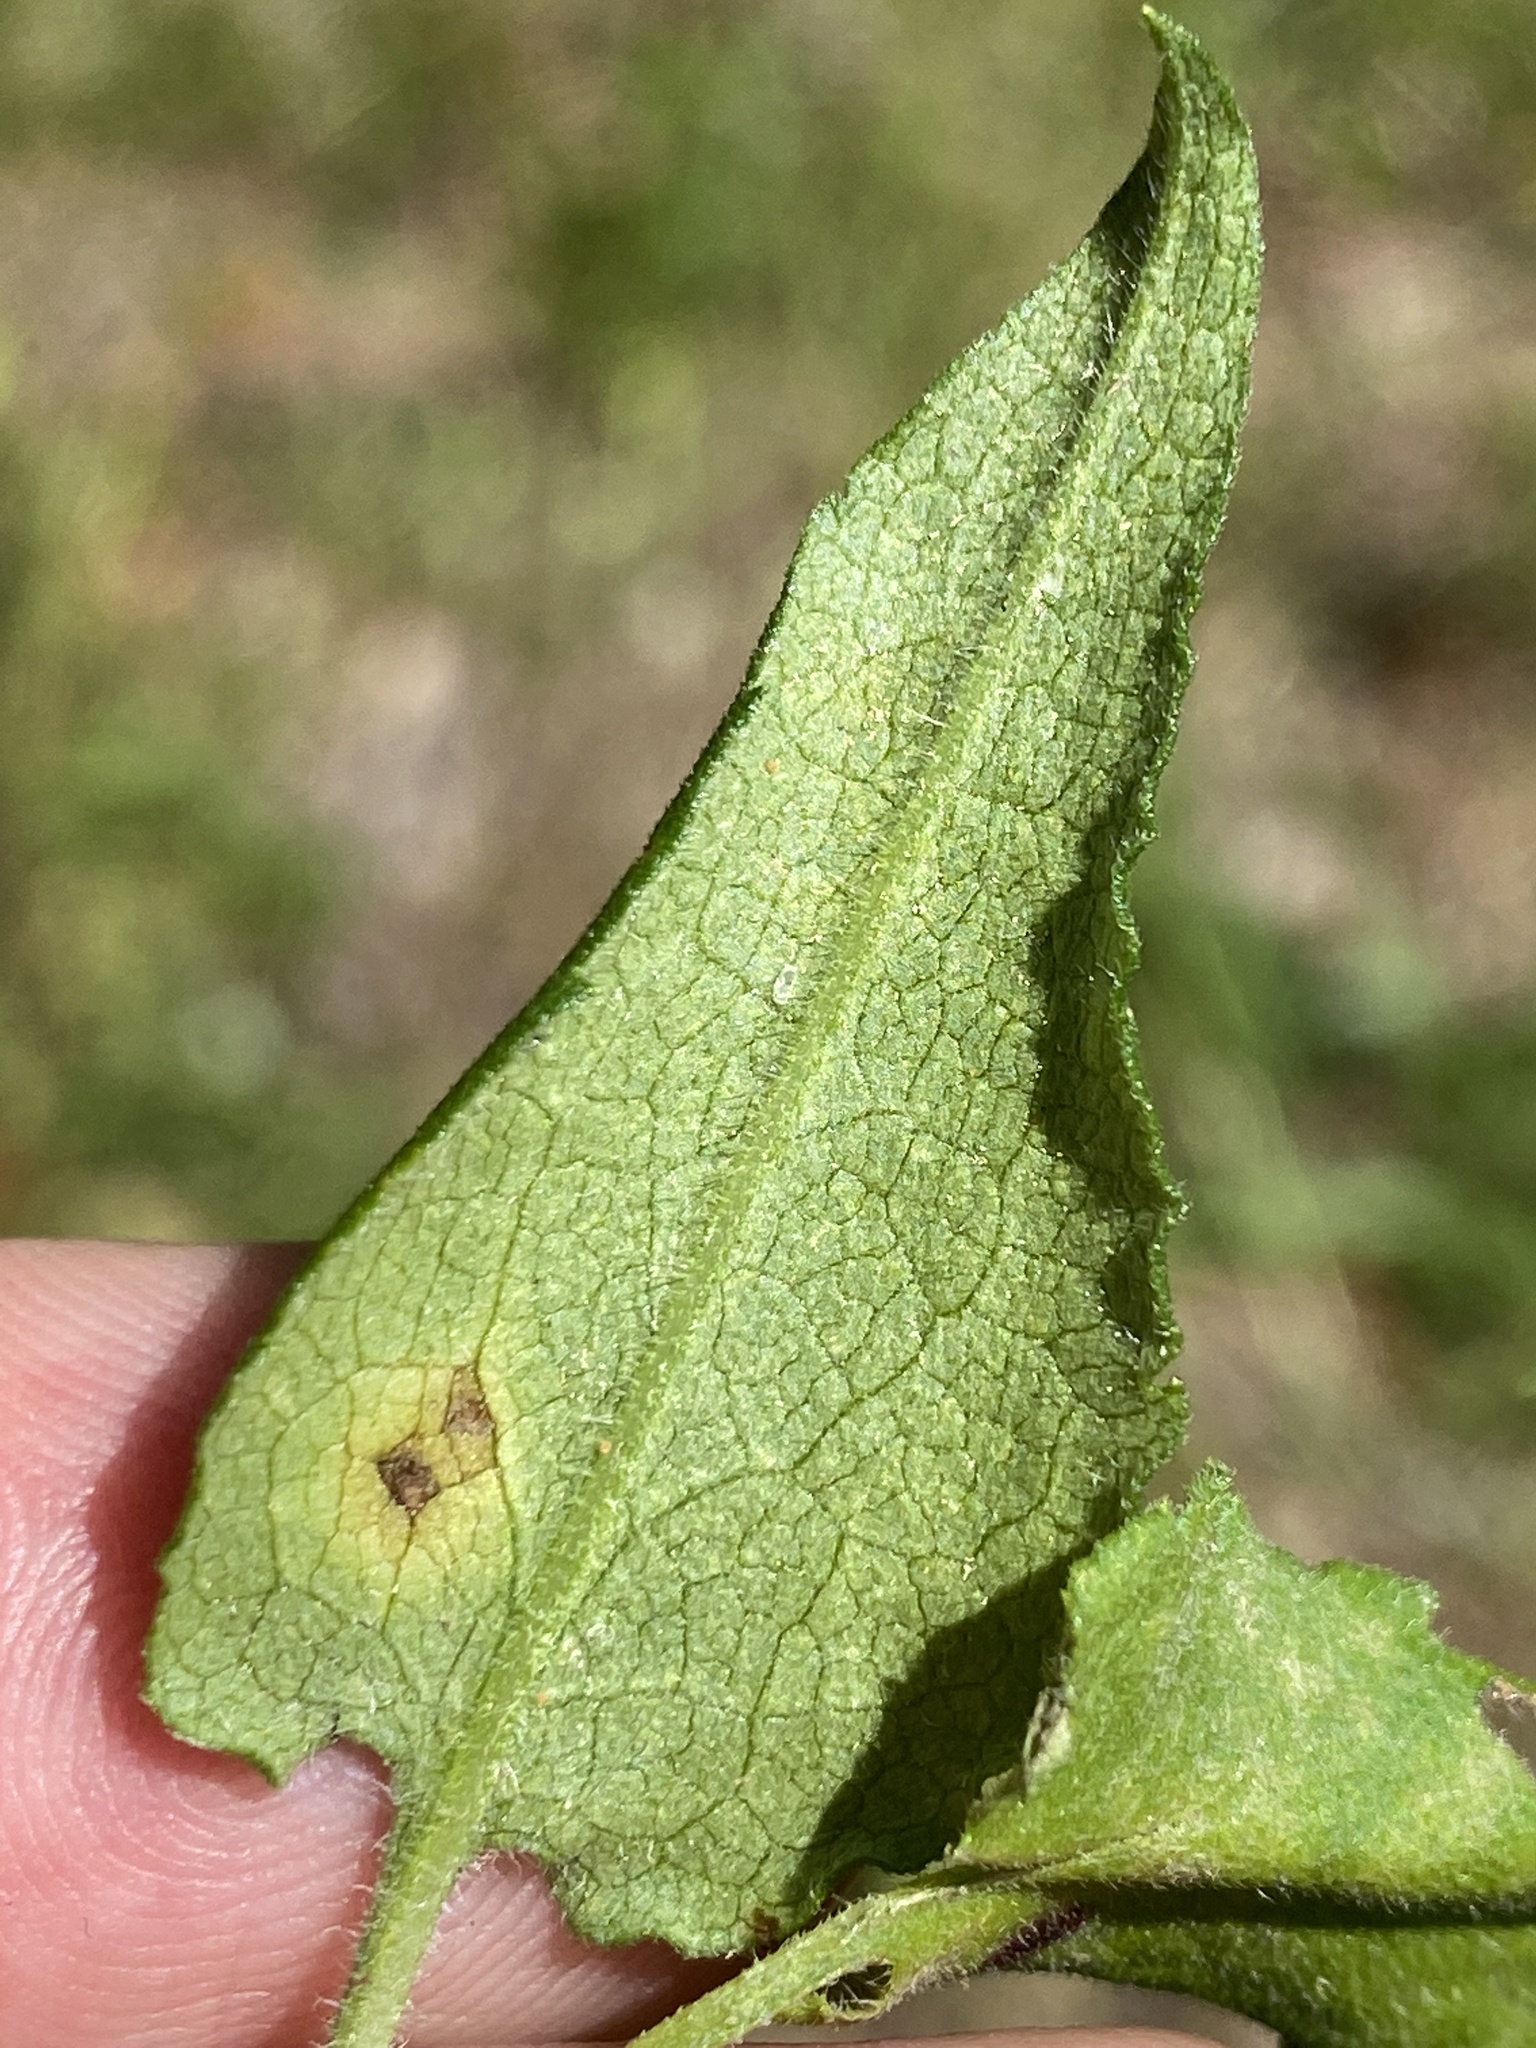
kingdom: Plantae
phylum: Tracheophyta
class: Magnoliopsida
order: Asterales
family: Asteraceae
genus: Symphyotrichum
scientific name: Symphyotrichum oolentangiense
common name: Azure aster
